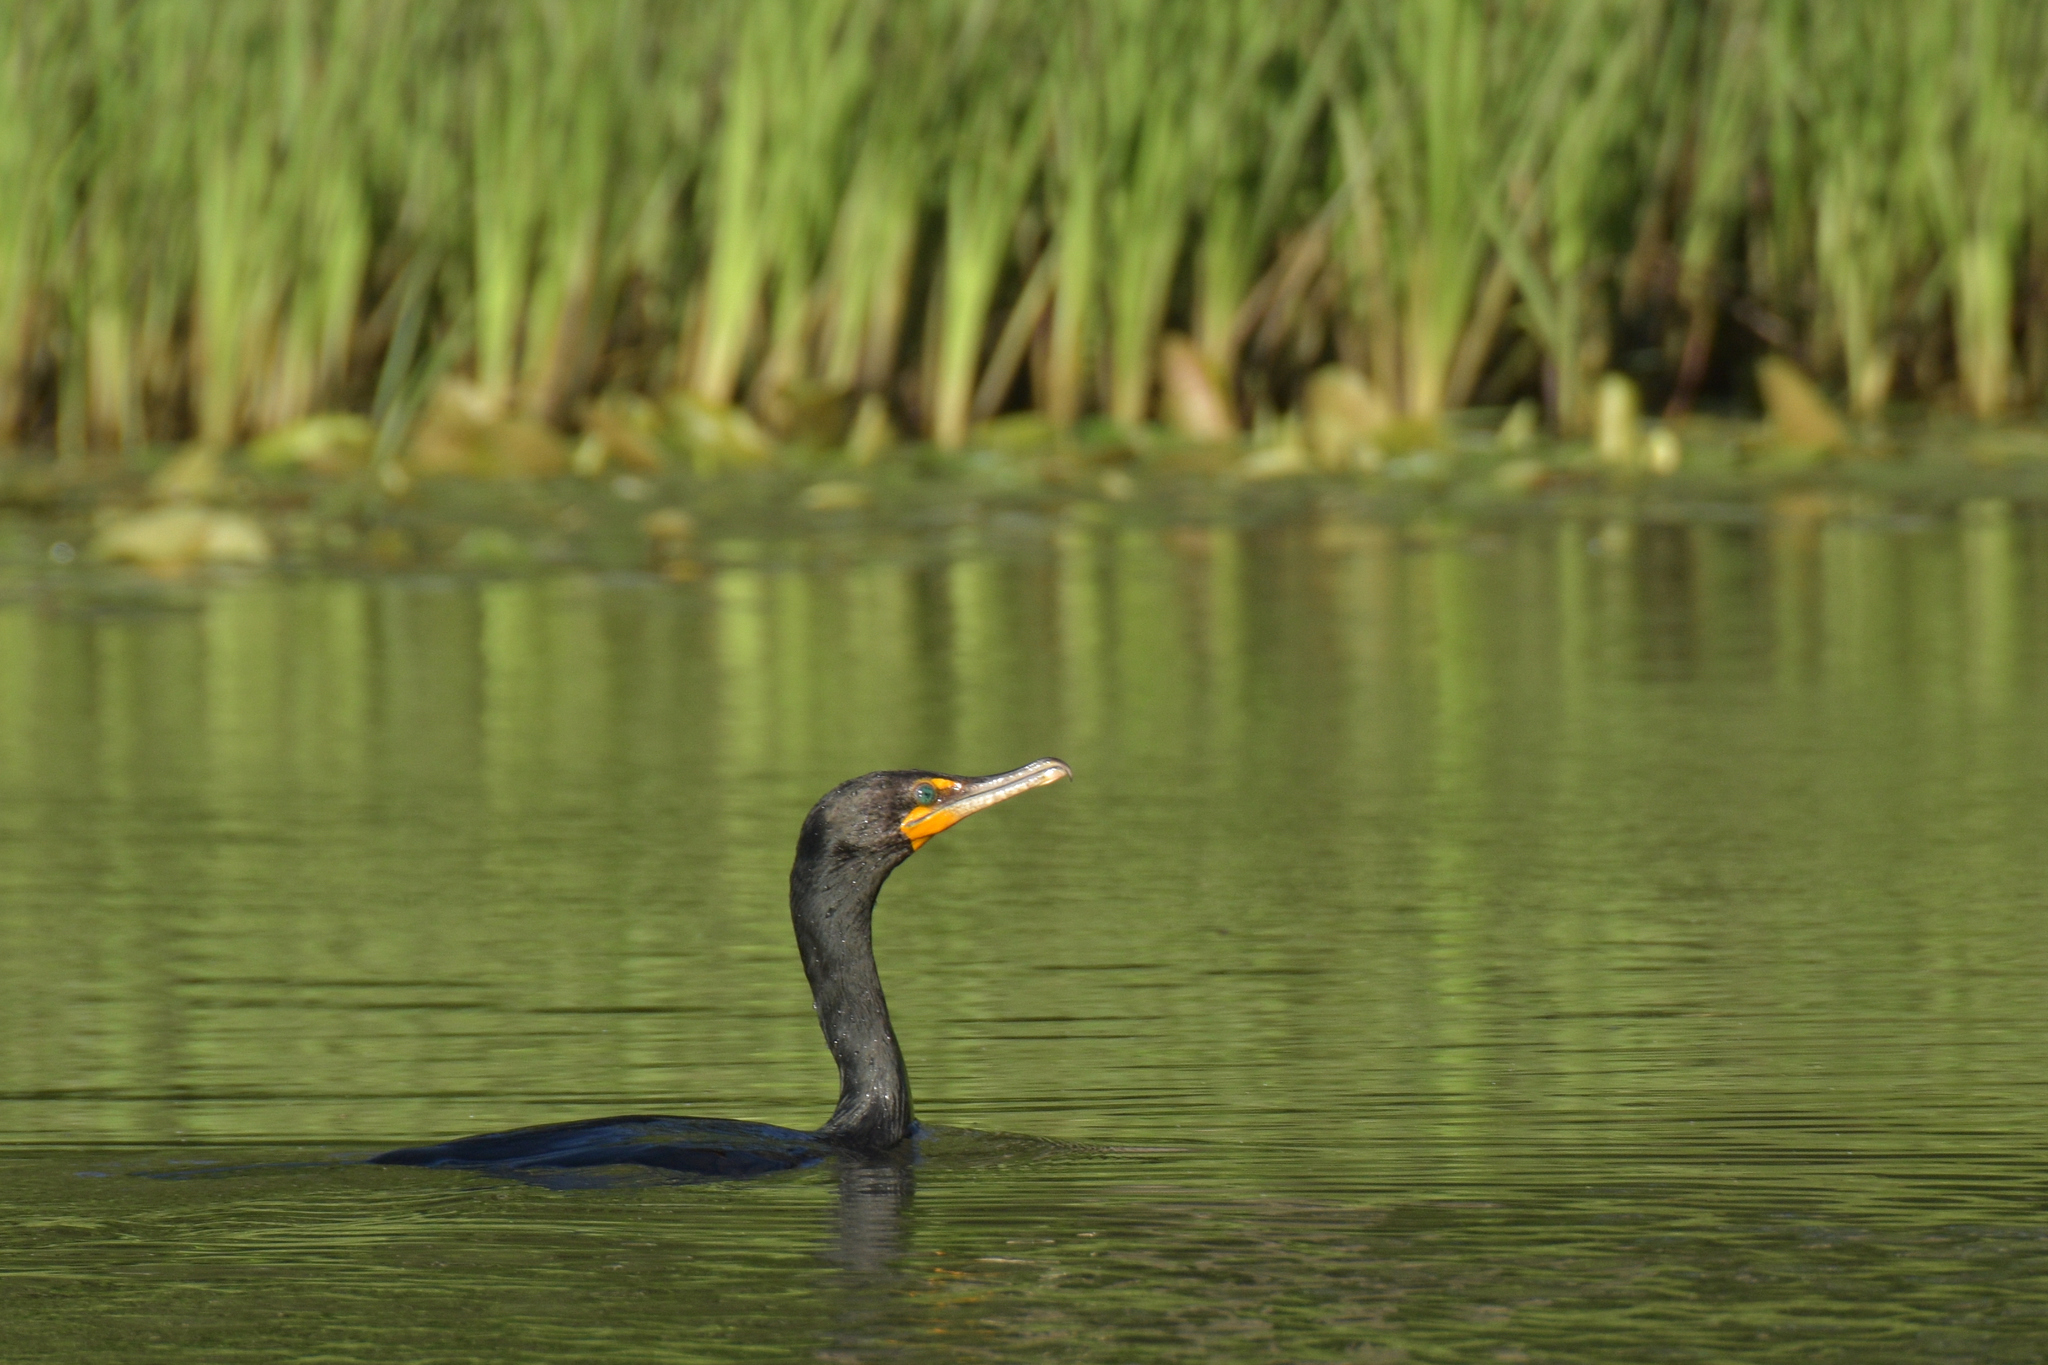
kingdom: Animalia
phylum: Chordata
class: Aves
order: Suliformes
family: Phalacrocoracidae
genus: Phalacrocorax
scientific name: Phalacrocorax auritus
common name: Double-crested cormorant
